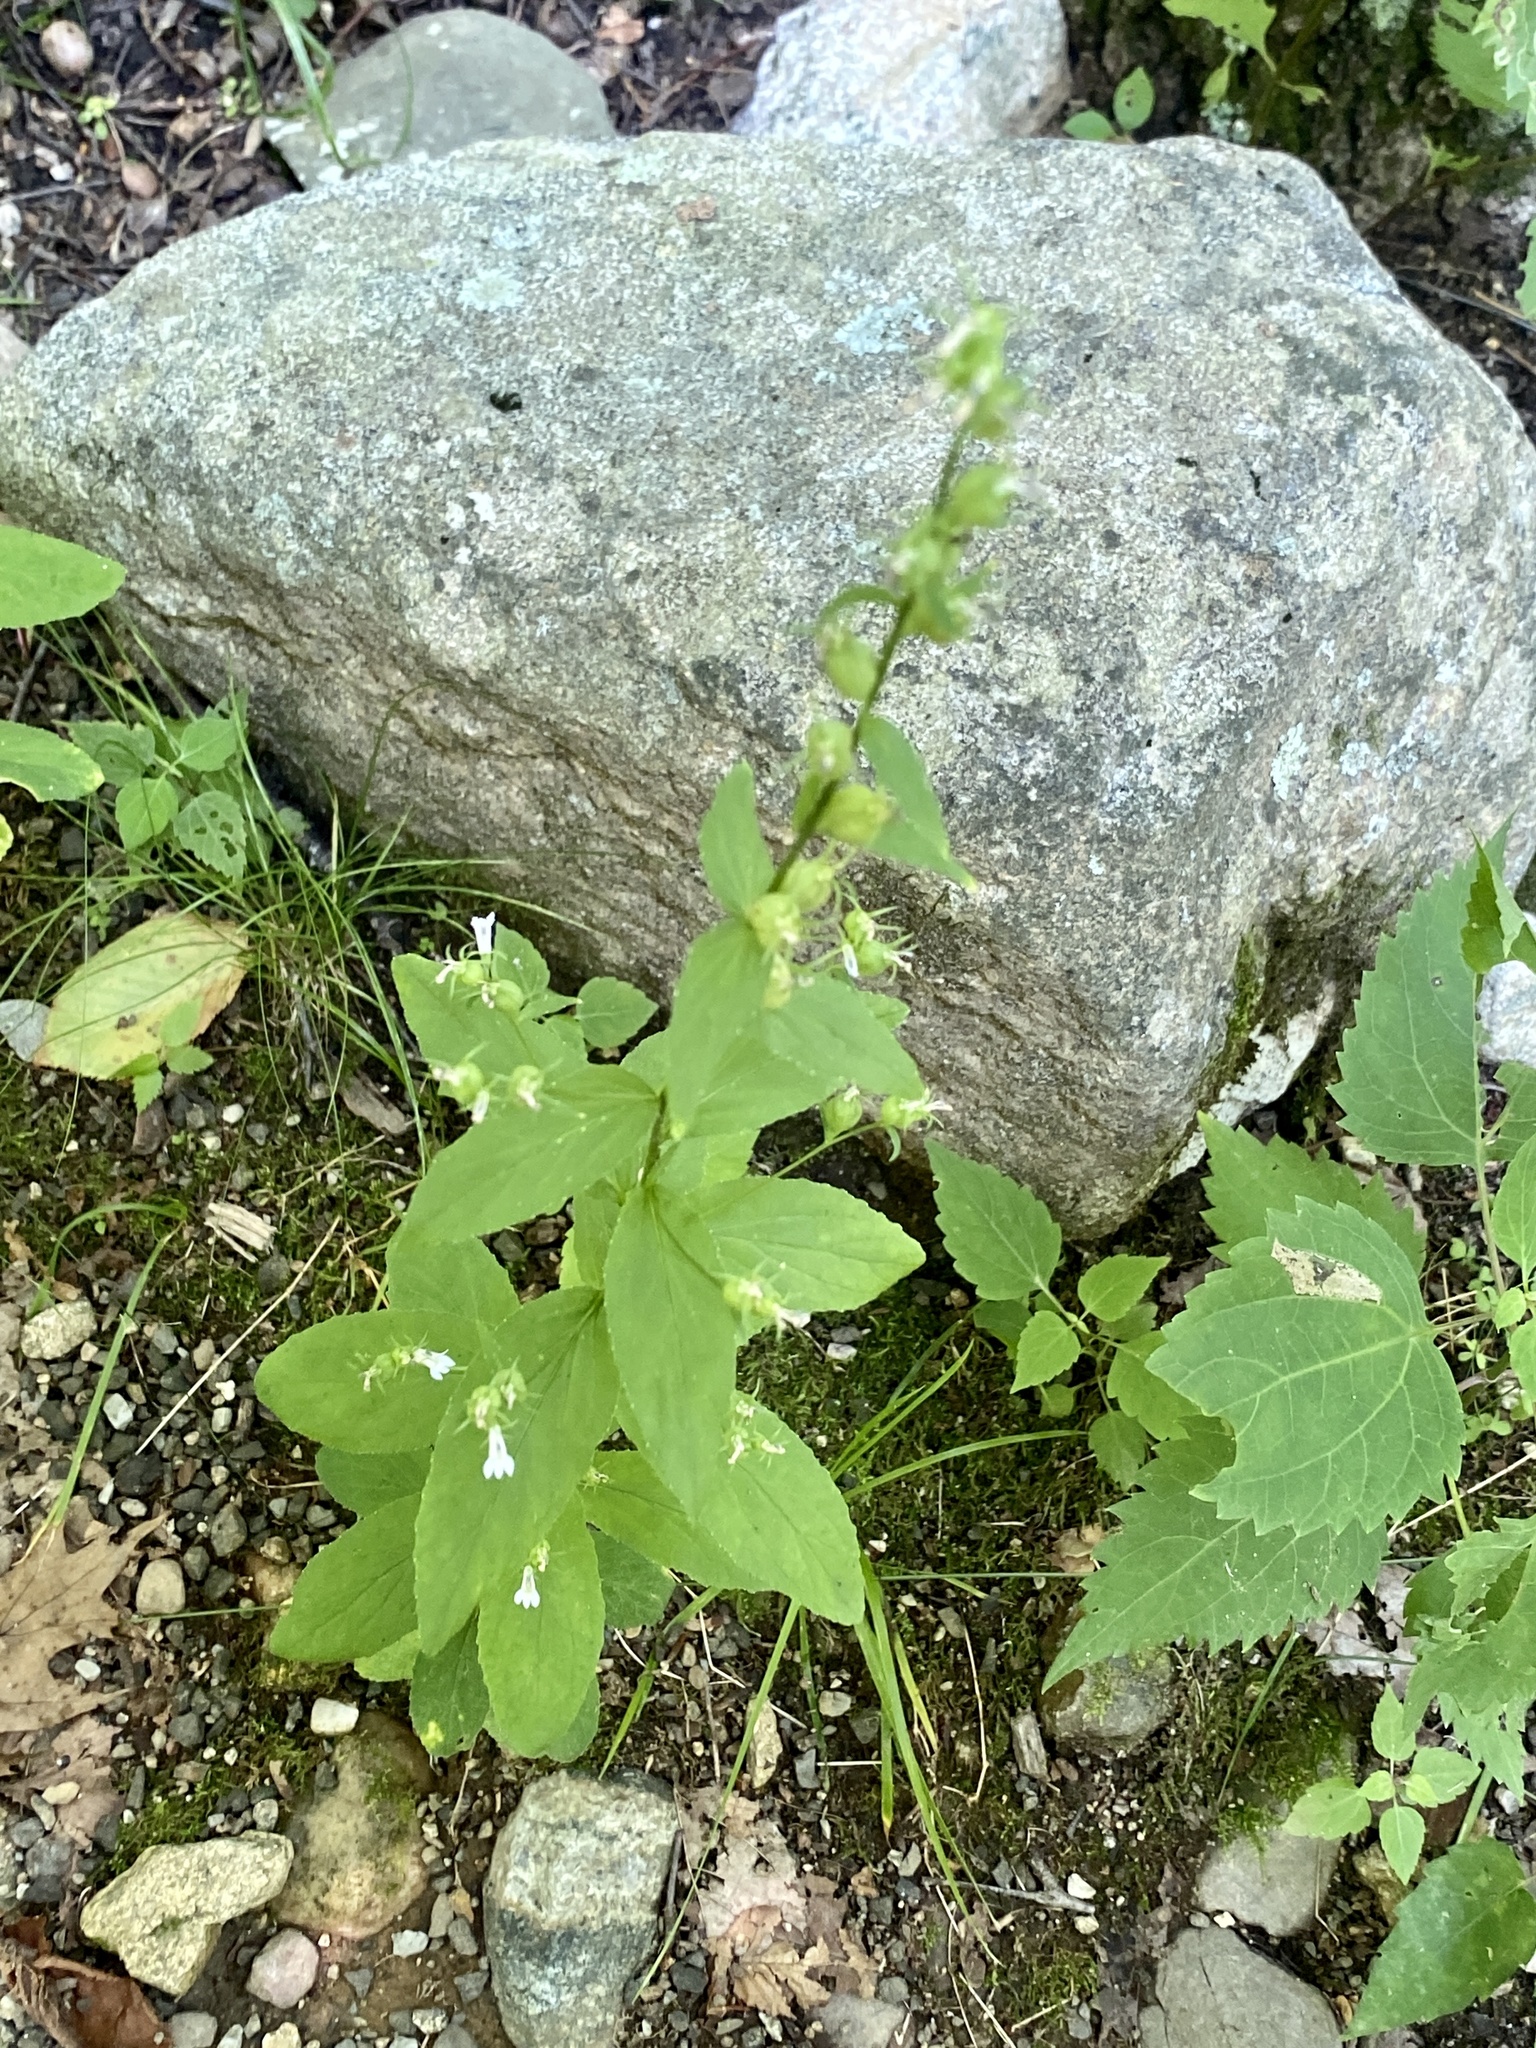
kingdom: Plantae
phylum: Tracheophyta
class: Magnoliopsida
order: Asterales
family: Campanulaceae
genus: Lobelia
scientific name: Lobelia inflata
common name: Indian tobacco
